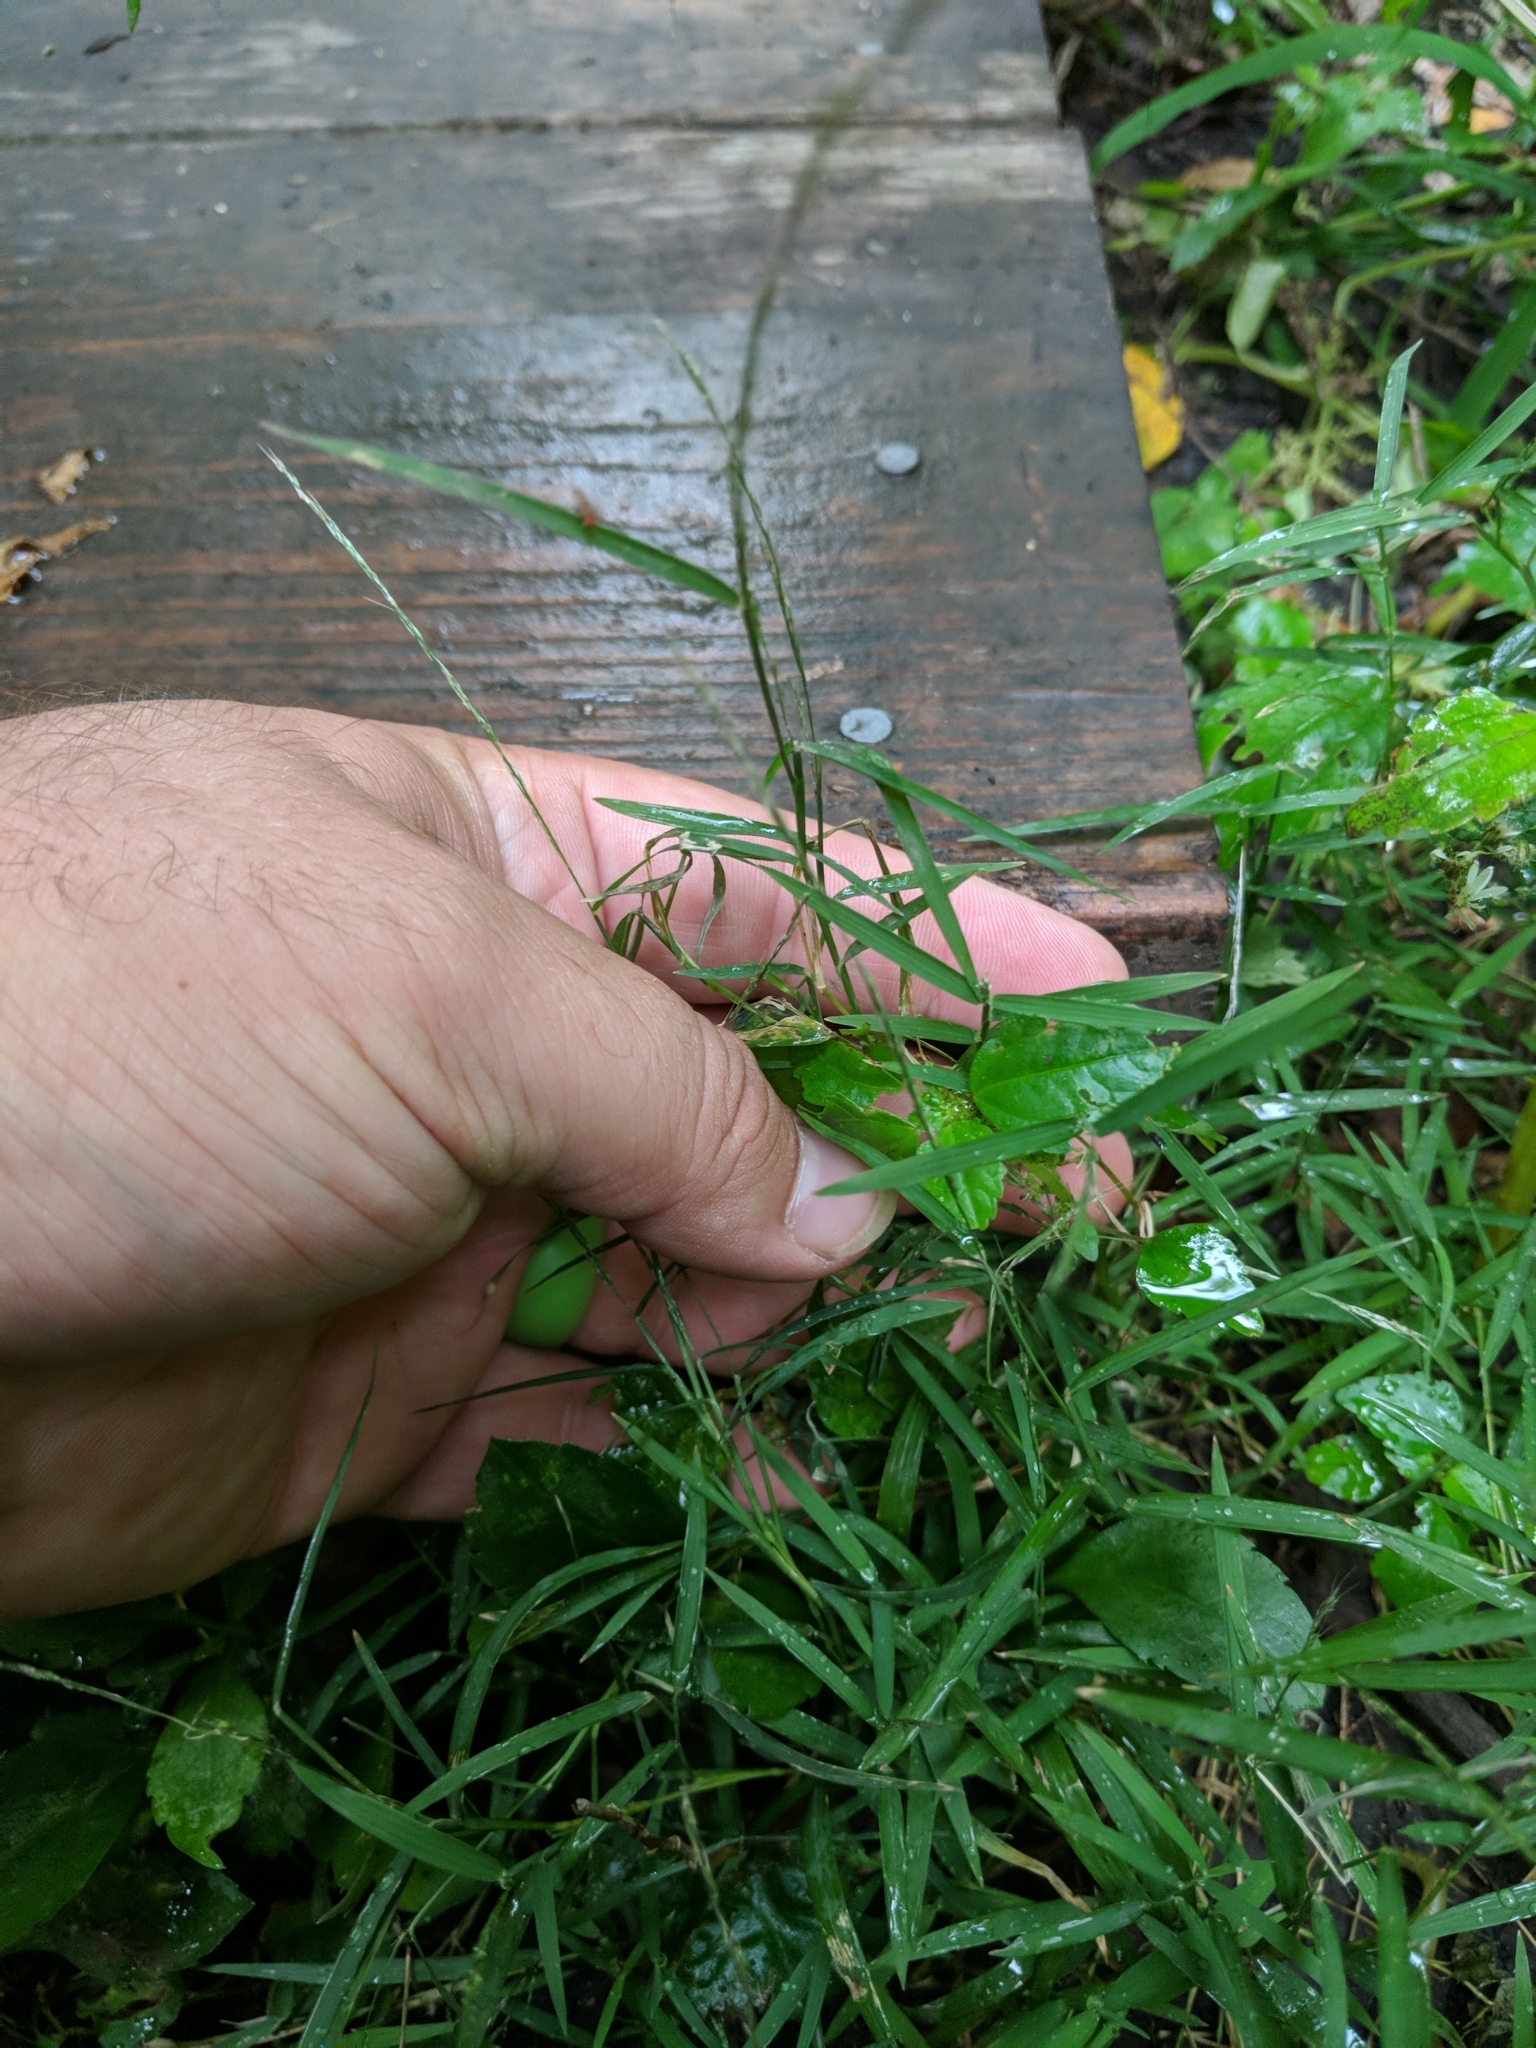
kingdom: Plantae
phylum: Tracheophyta
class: Liliopsida
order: Poales
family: Poaceae
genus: Muhlenbergia
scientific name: Muhlenbergia schreberi
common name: Nimblewill
